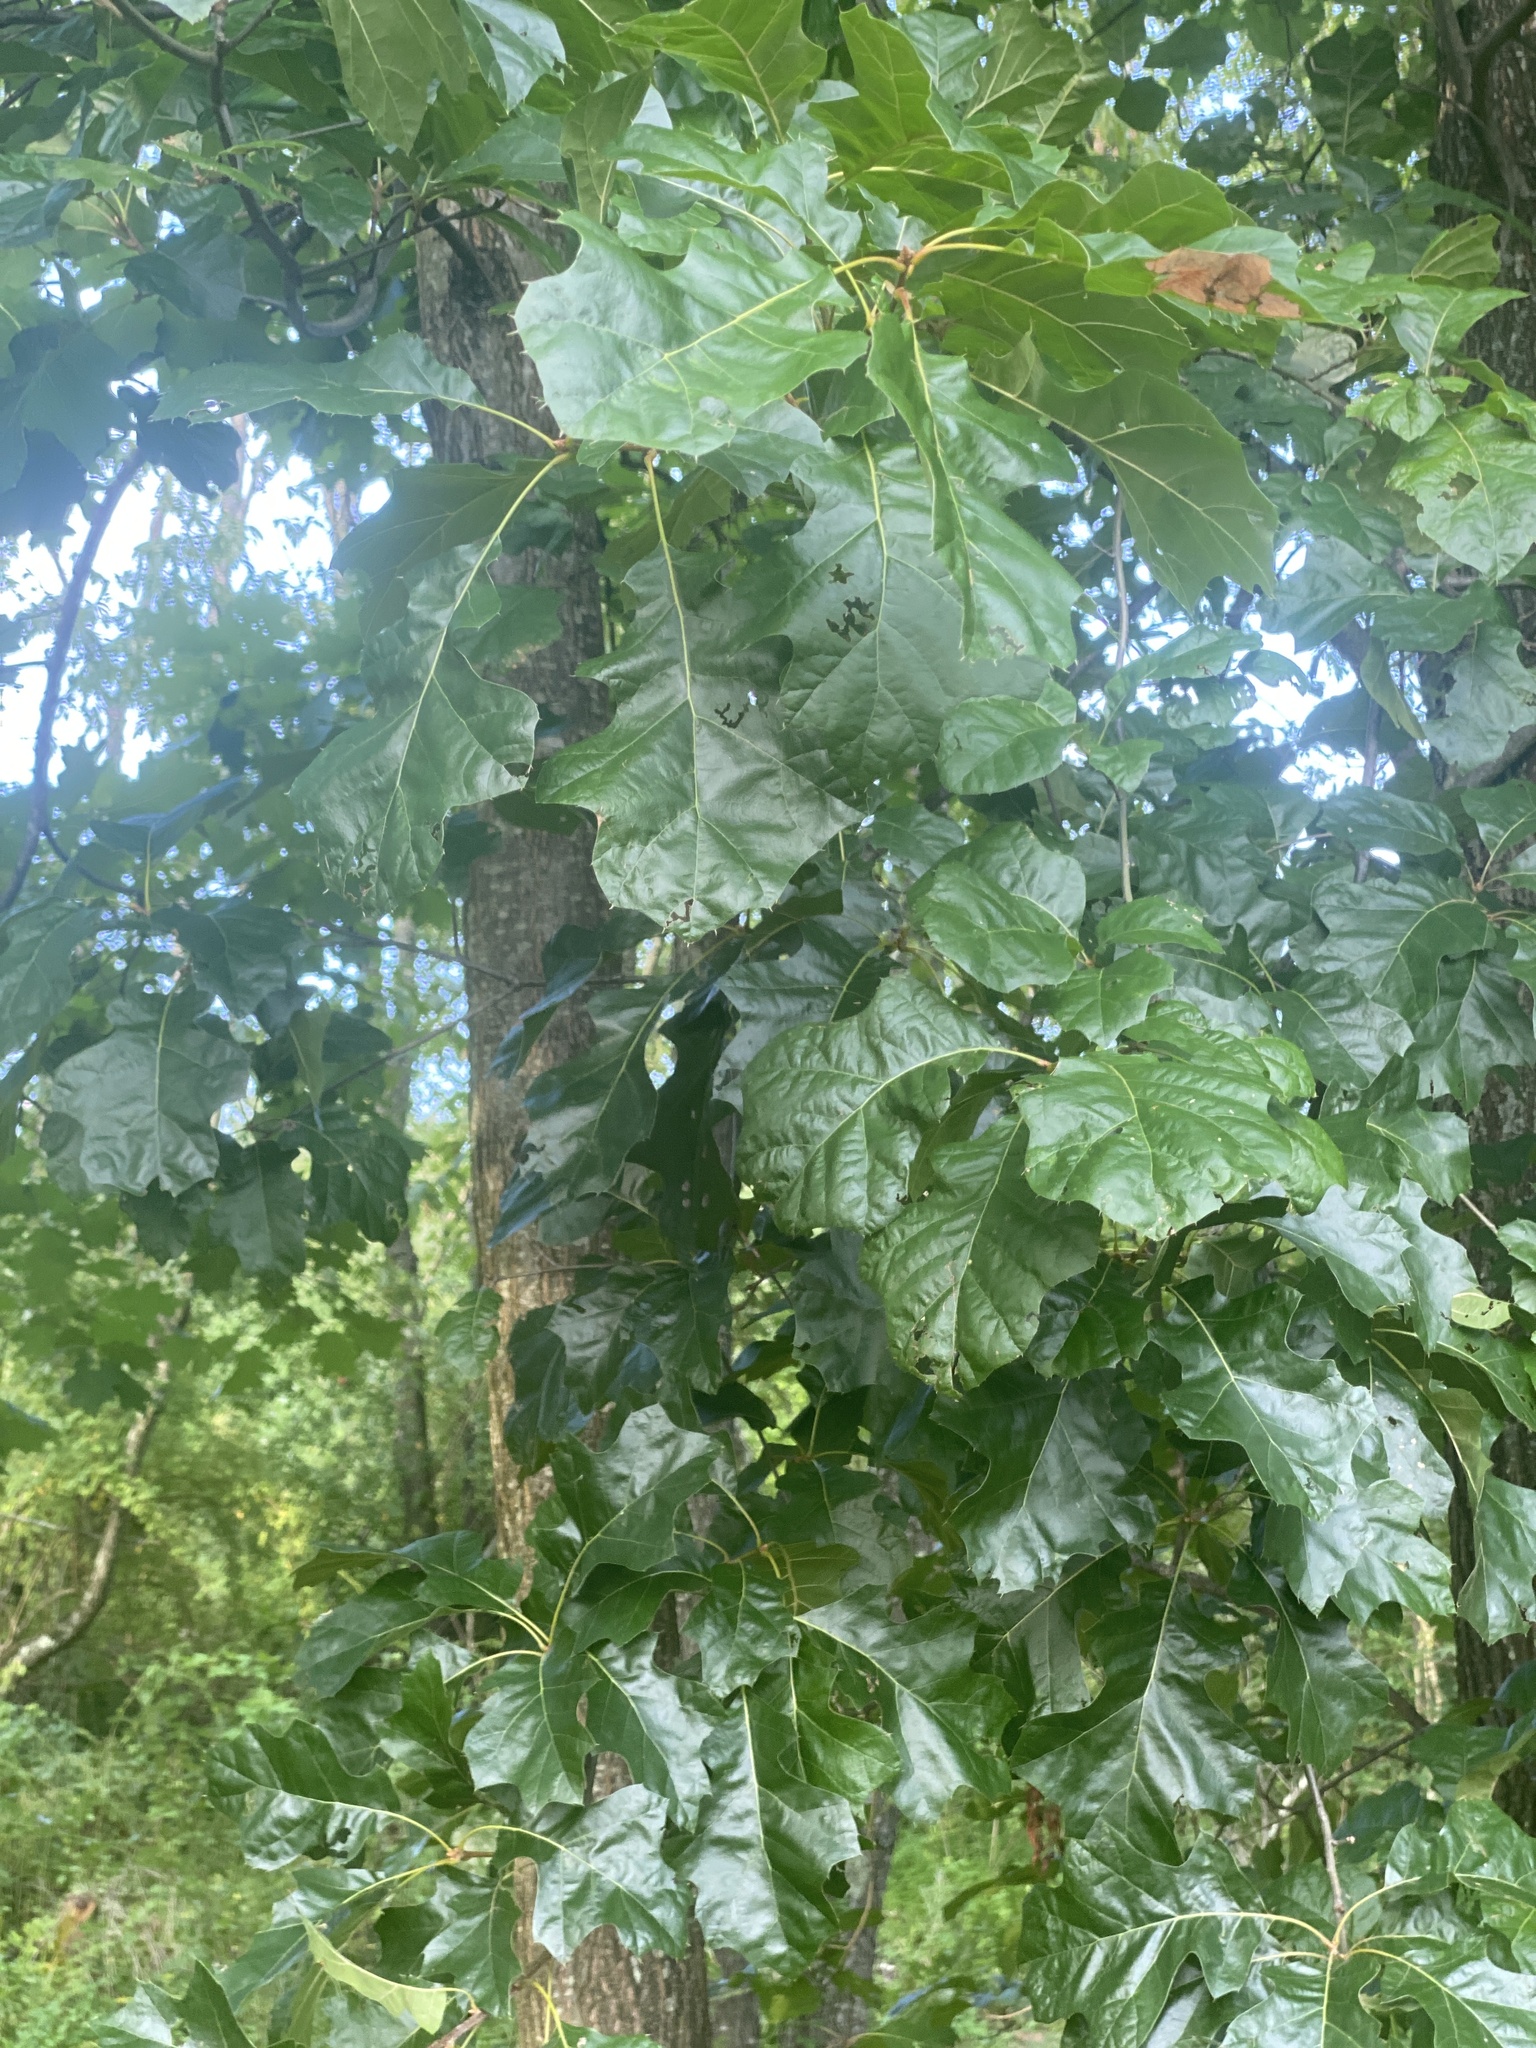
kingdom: Plantae
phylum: Tracheophyta
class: Magnoliopsida
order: Fagales
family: Fagaceae
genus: Quercus
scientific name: Quercus velutina
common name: Black oak
